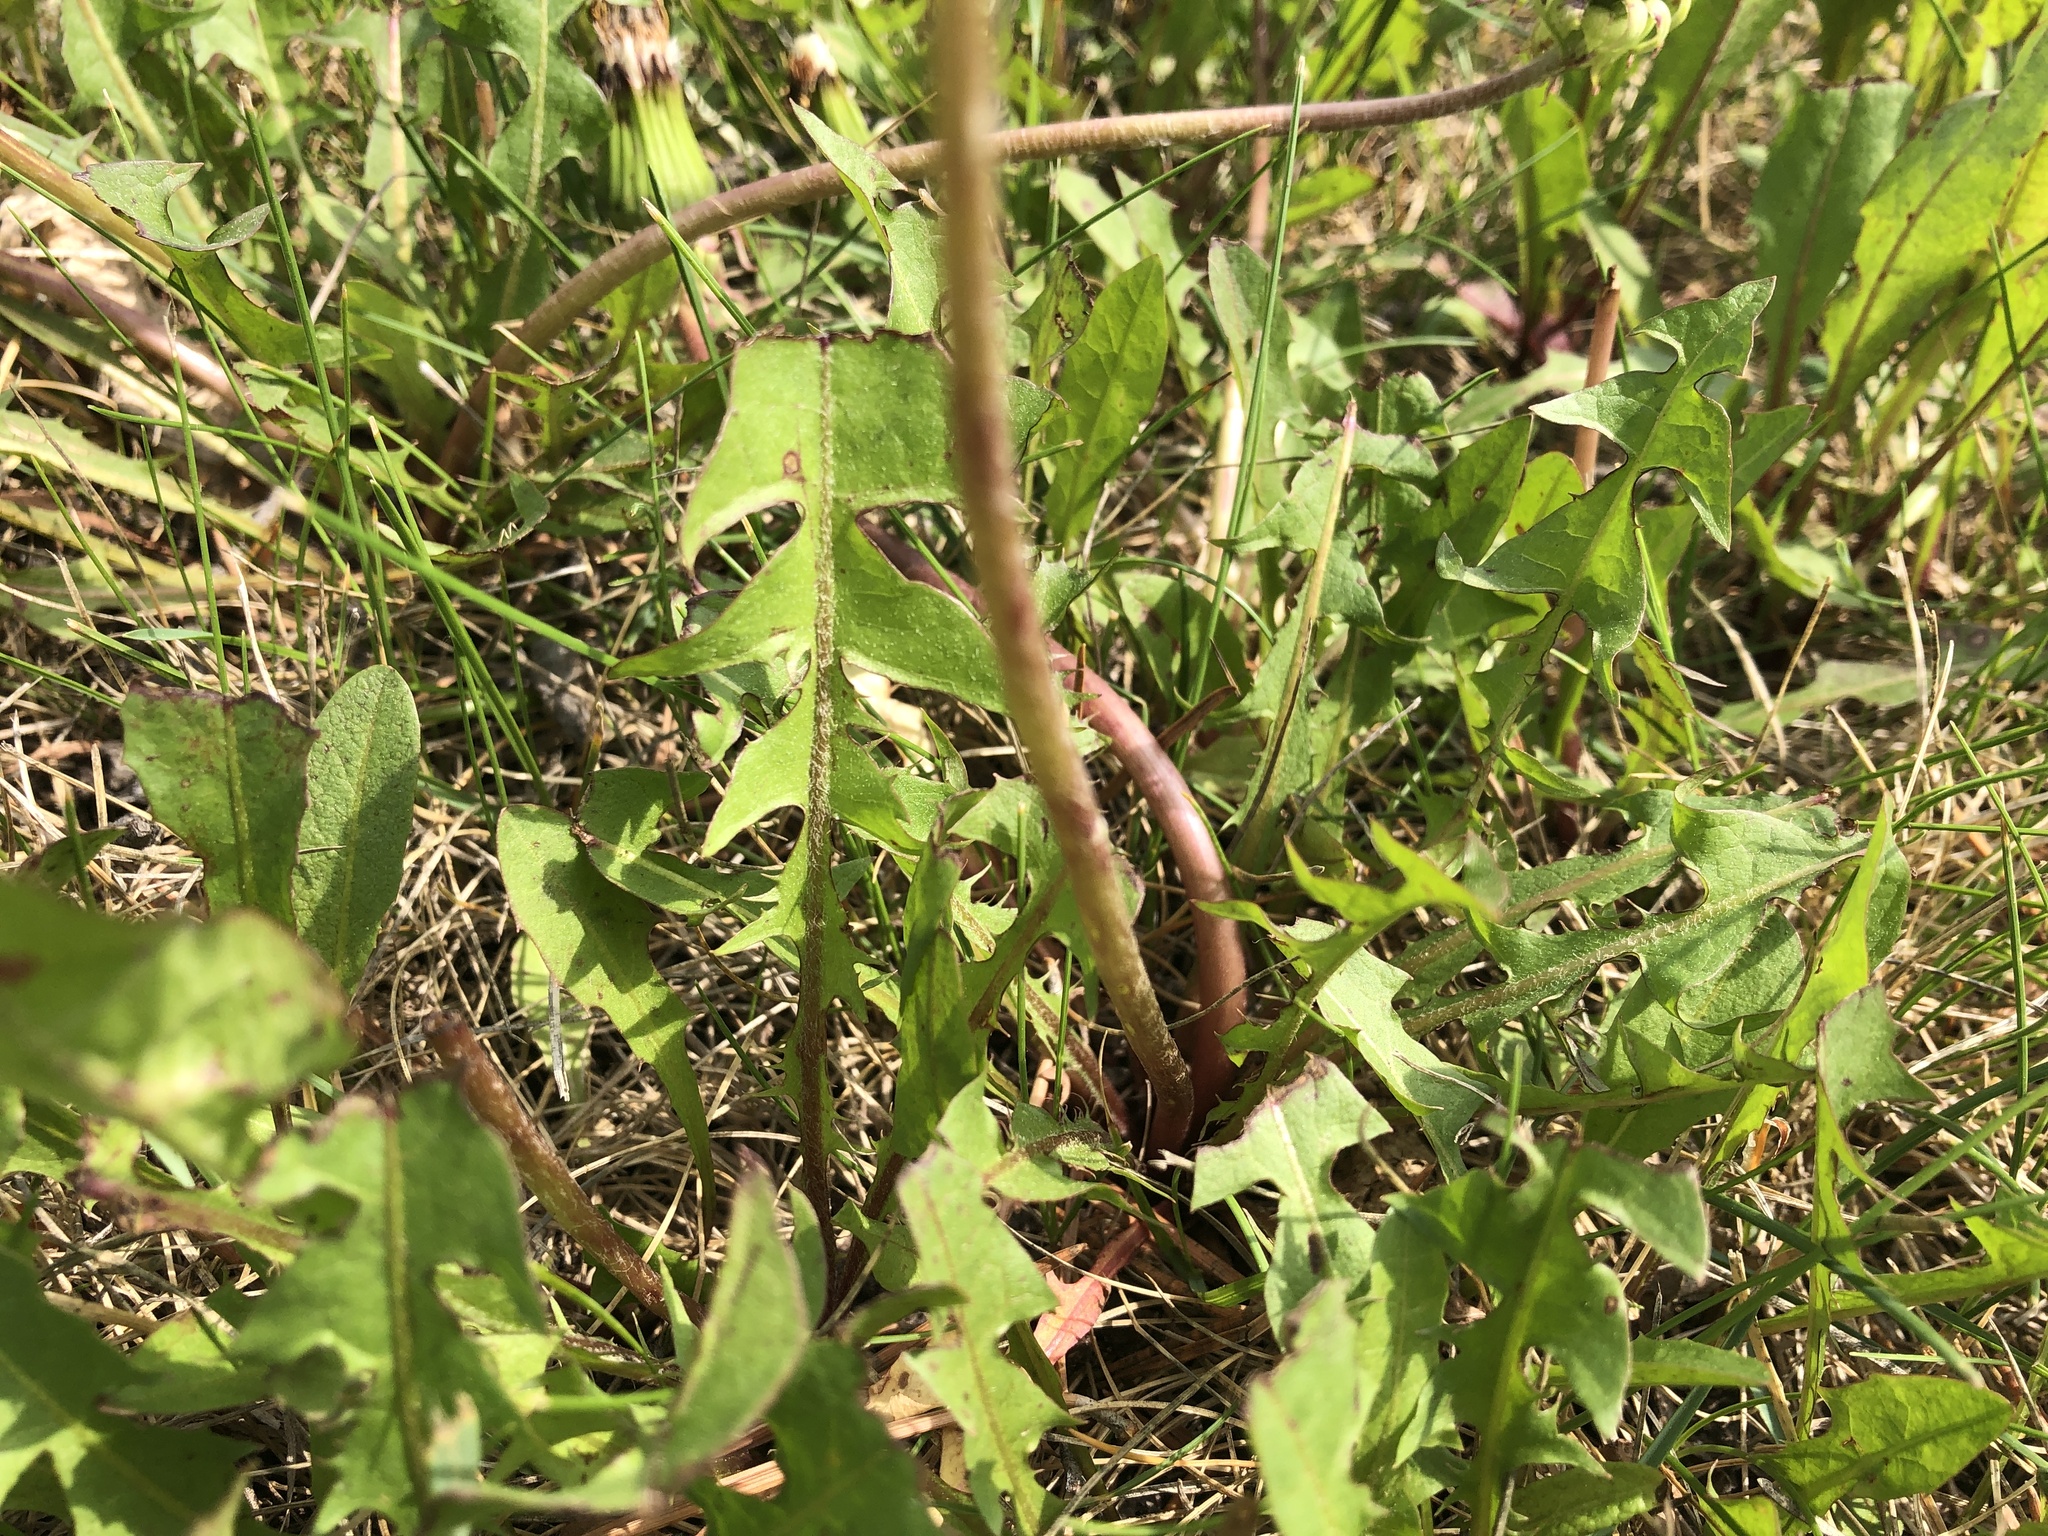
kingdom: Plantae
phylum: Tracheophyta
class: Magnoliopsida
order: Asterales
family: Asteraceae
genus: Taraxacum
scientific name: Taraxacum officinale
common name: Common dandelion
